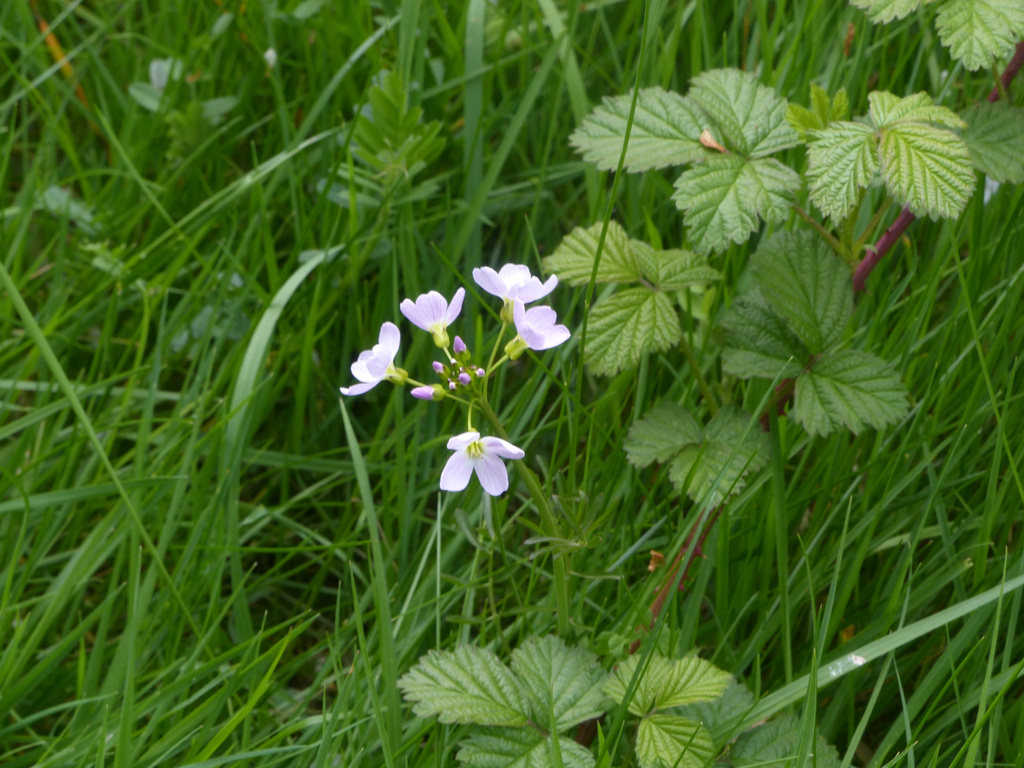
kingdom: Plantae
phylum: Tracheophyta
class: Magnoliopsida
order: Brassicales
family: Brassicaceae
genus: Cardamine
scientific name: Cardamine pratensis
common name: Cuckoo flower
